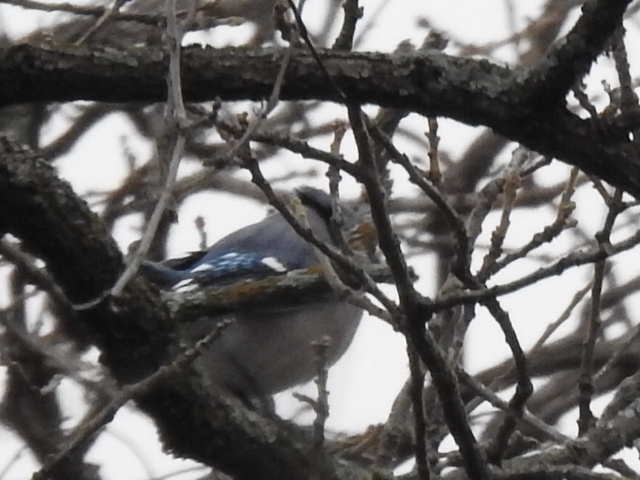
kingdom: Animalia
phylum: Chordata
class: Aves
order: Passeriformes
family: Corvidae
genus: Cyanocitta
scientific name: Cyanocitta cristata
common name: Blue jay
